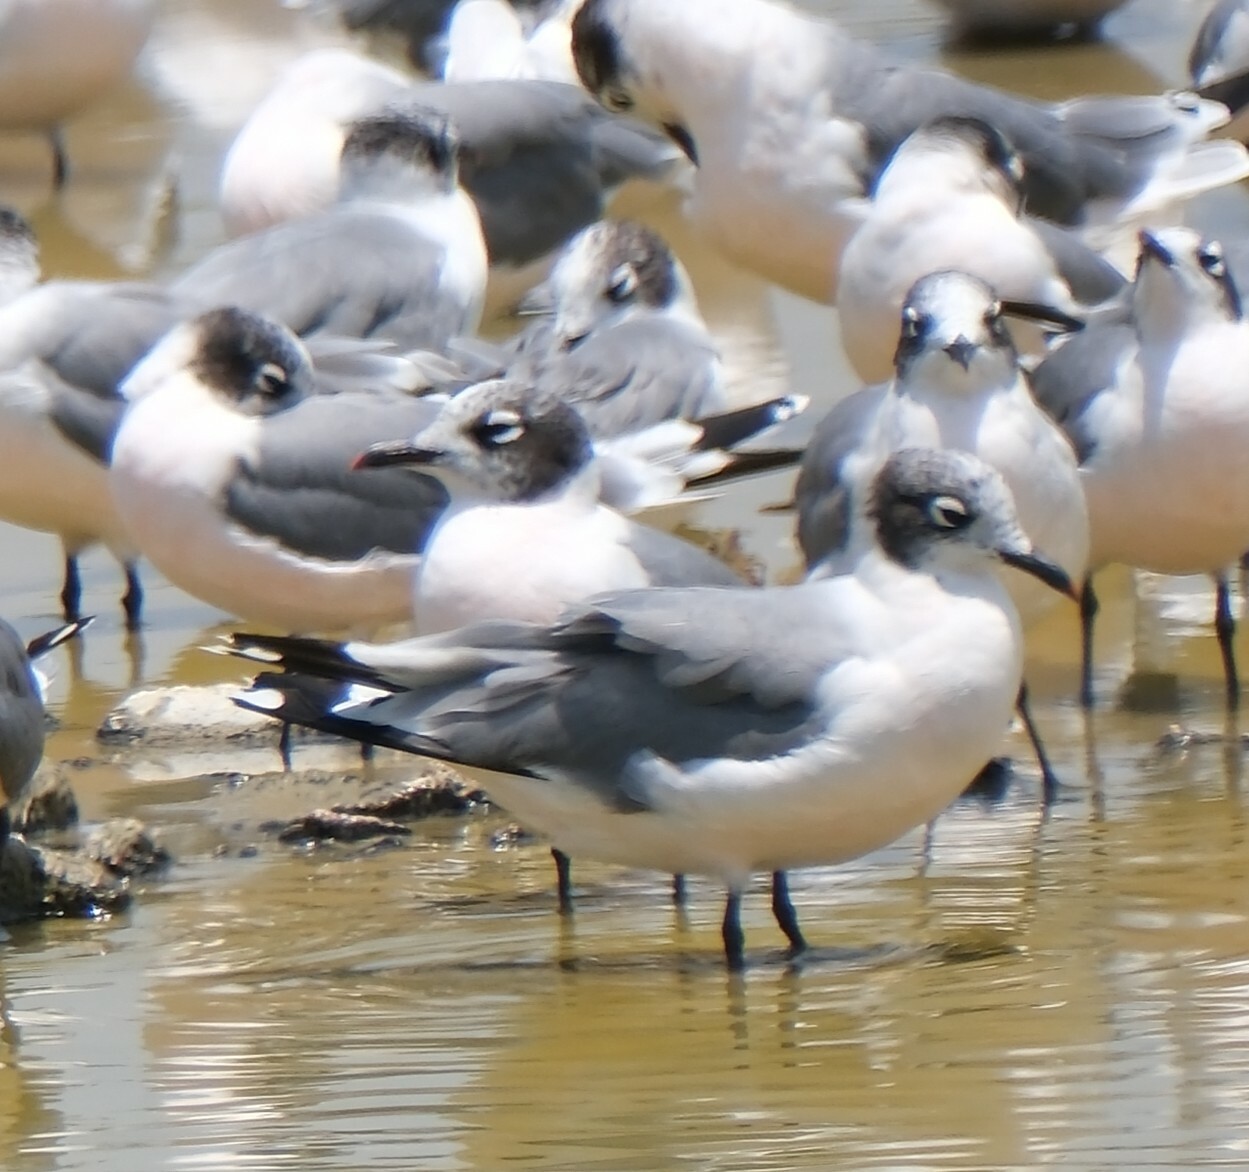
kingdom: Animalia
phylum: Chordata
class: Aves
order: Charadriiformes
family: Laridae
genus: Leucophaeus
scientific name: Leucophaeus pipixcan
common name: Franklin's gull
